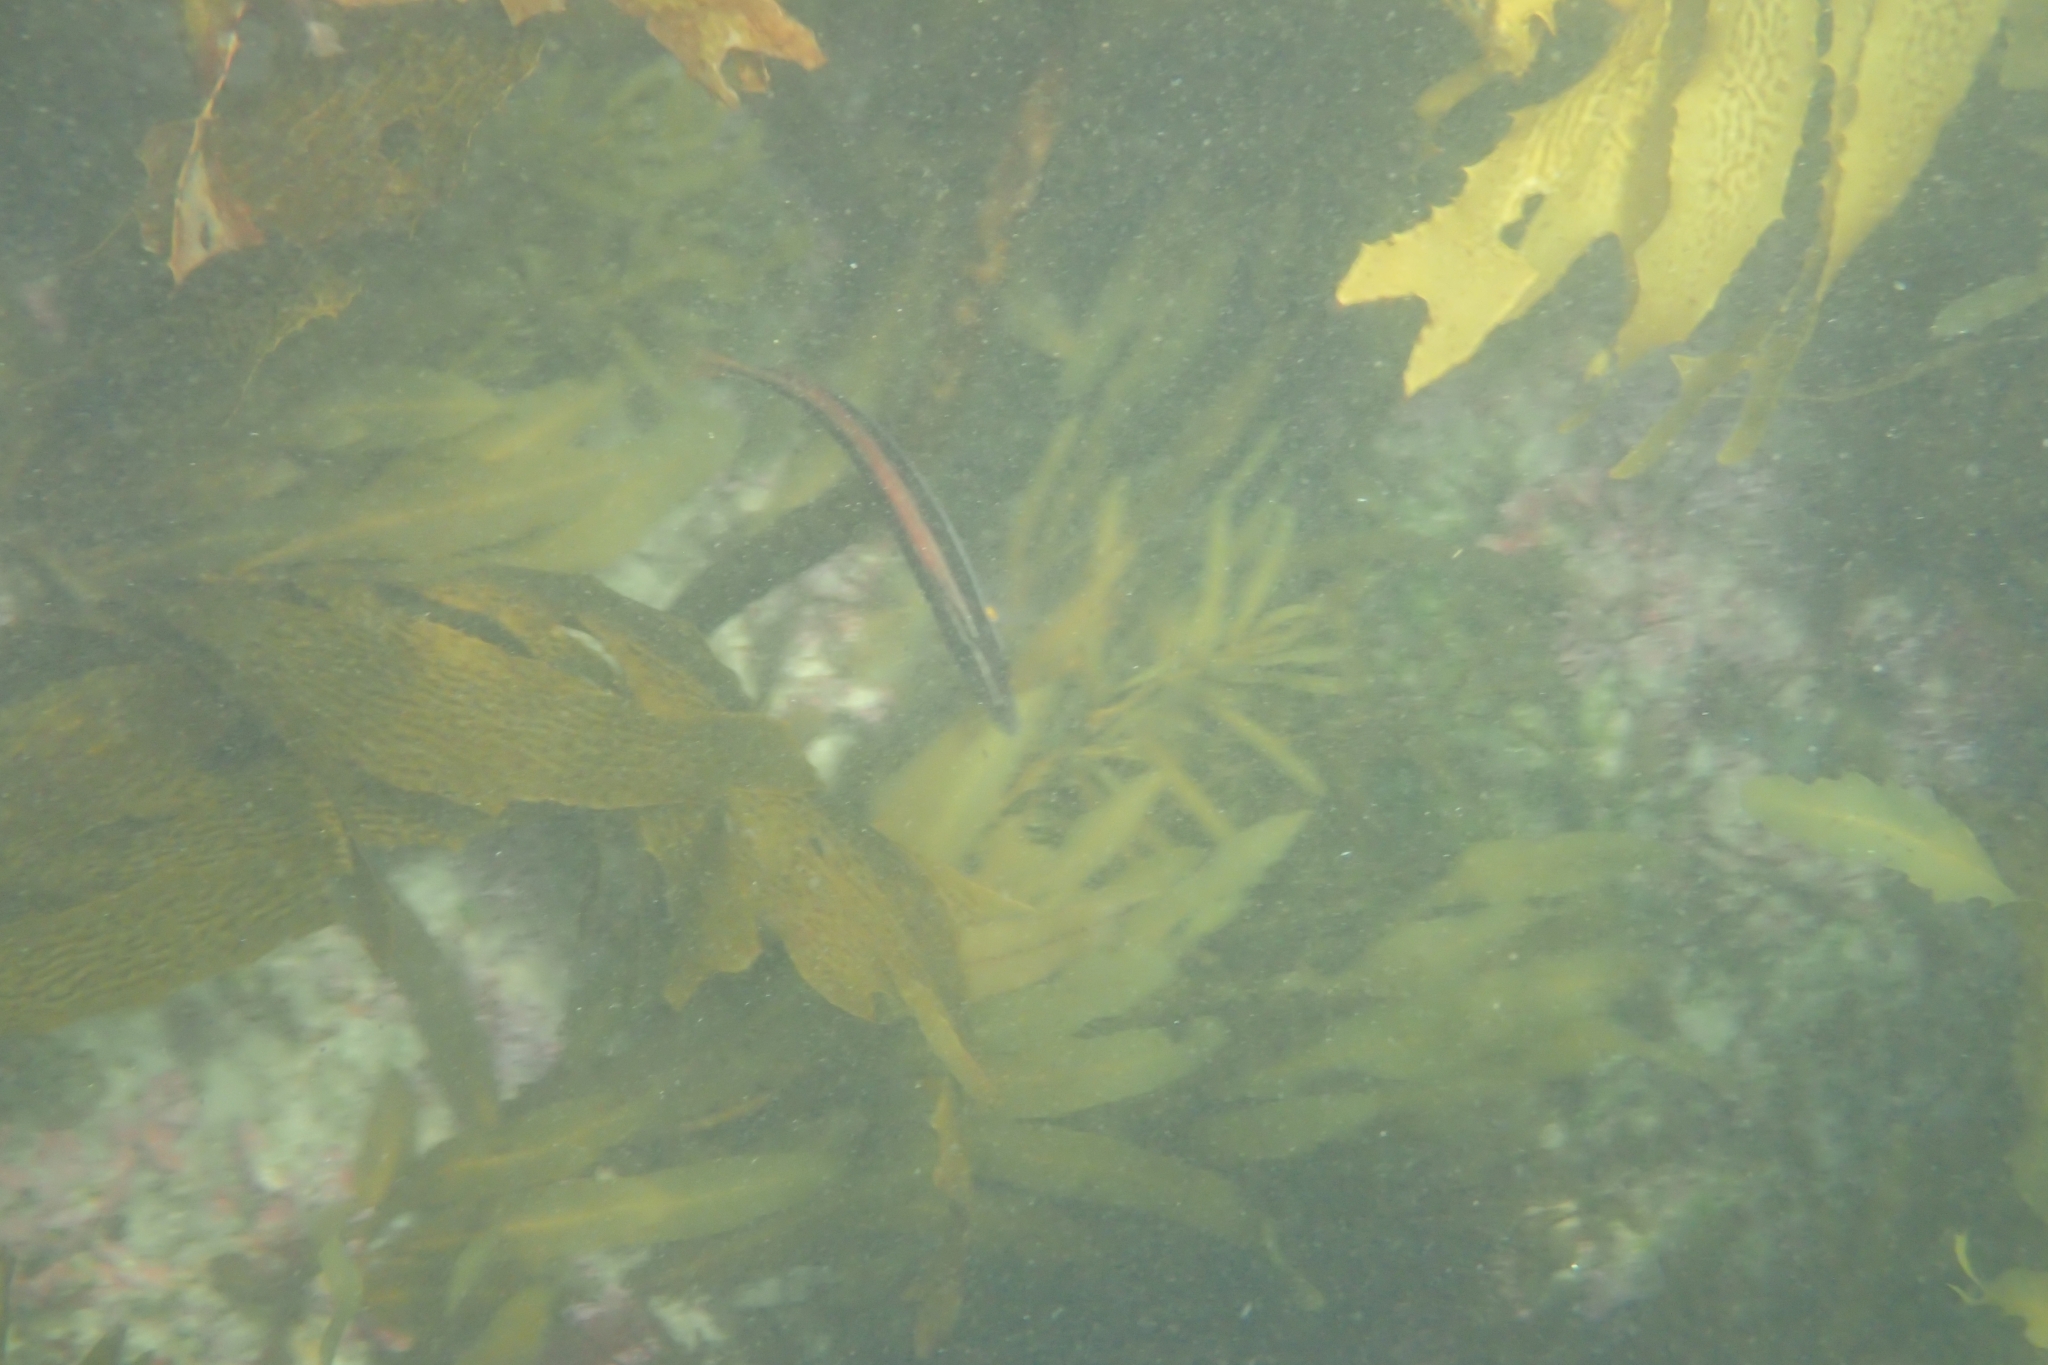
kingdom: Animalia
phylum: Chordata
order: Perciformes
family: Labridae
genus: Ophthalmolepis
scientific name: Ophthalmolepis lineolata
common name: Maori wrasse
